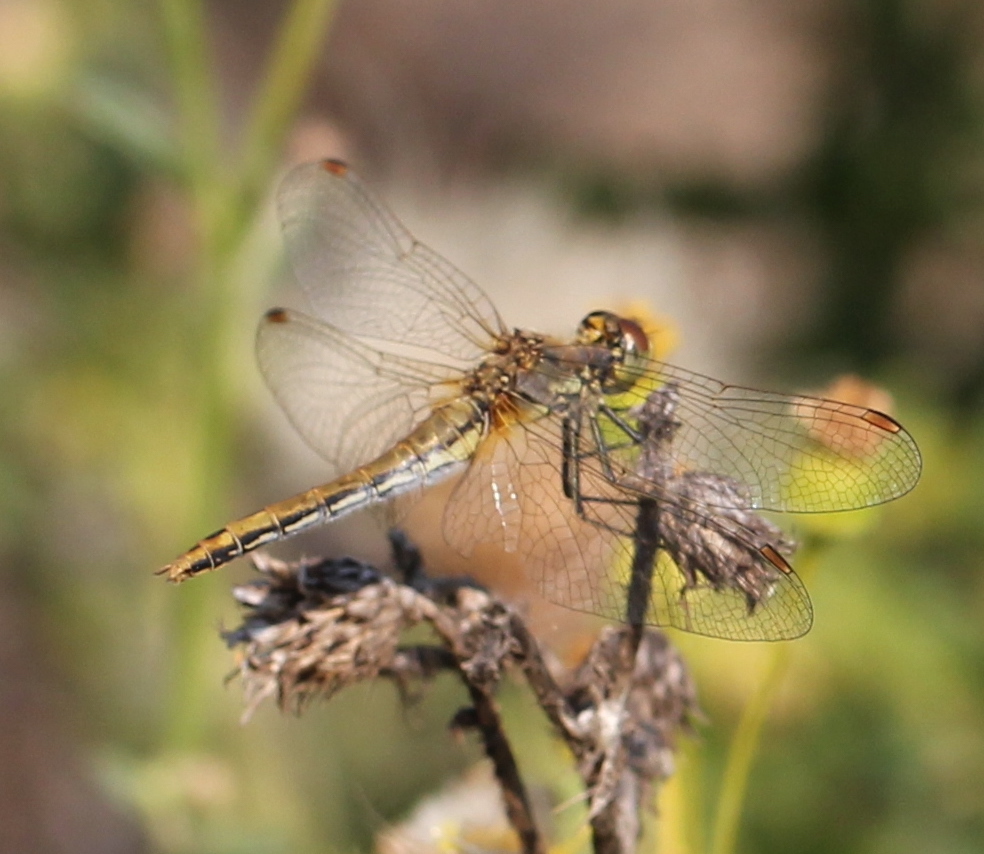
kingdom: Animalia
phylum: Arthropoda
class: Insecta
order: Odonata
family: Libellulidae
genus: Sympetrum
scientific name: Sympetrum flaveolum
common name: Yellow-winged darter
